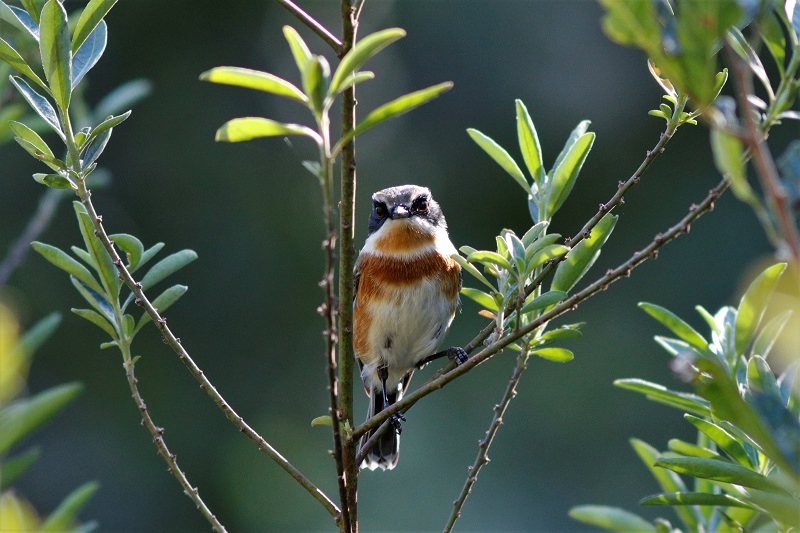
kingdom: Animalia
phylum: Chordata
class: Aves
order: Passeriformes
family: Platysteiridae
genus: Batis
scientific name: Batis capensis
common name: Cape batis
